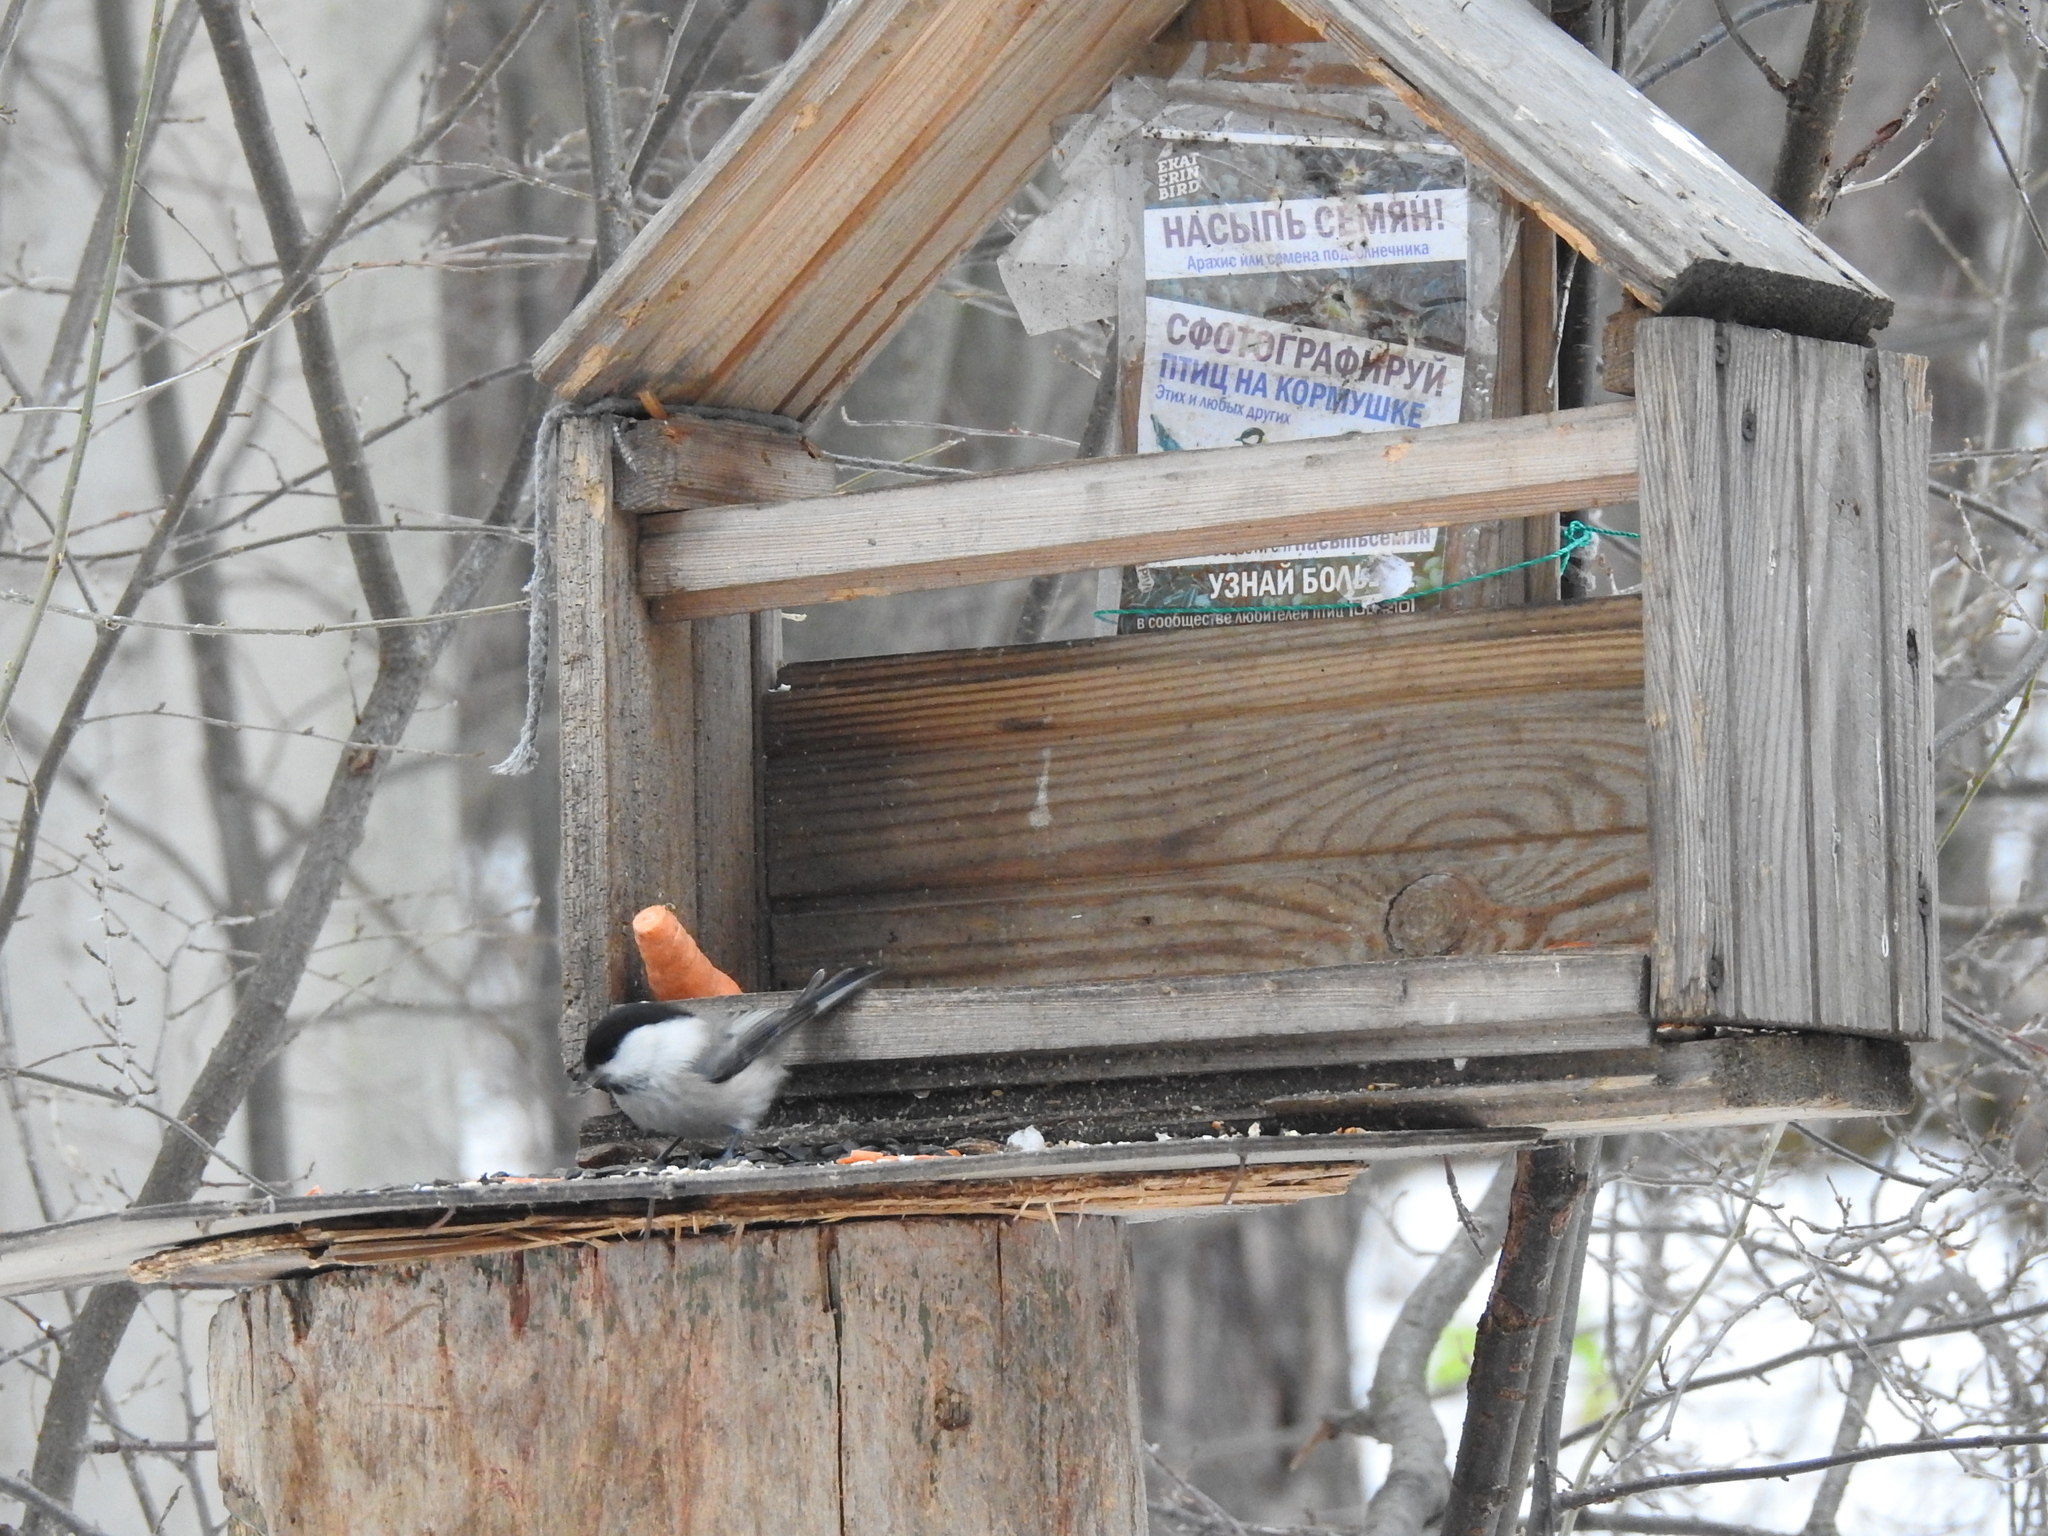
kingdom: Animalia
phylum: Chordata
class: Aves
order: Passeriformes
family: Paridae
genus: Poecile
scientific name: Poecile montanus
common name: Willow tit
